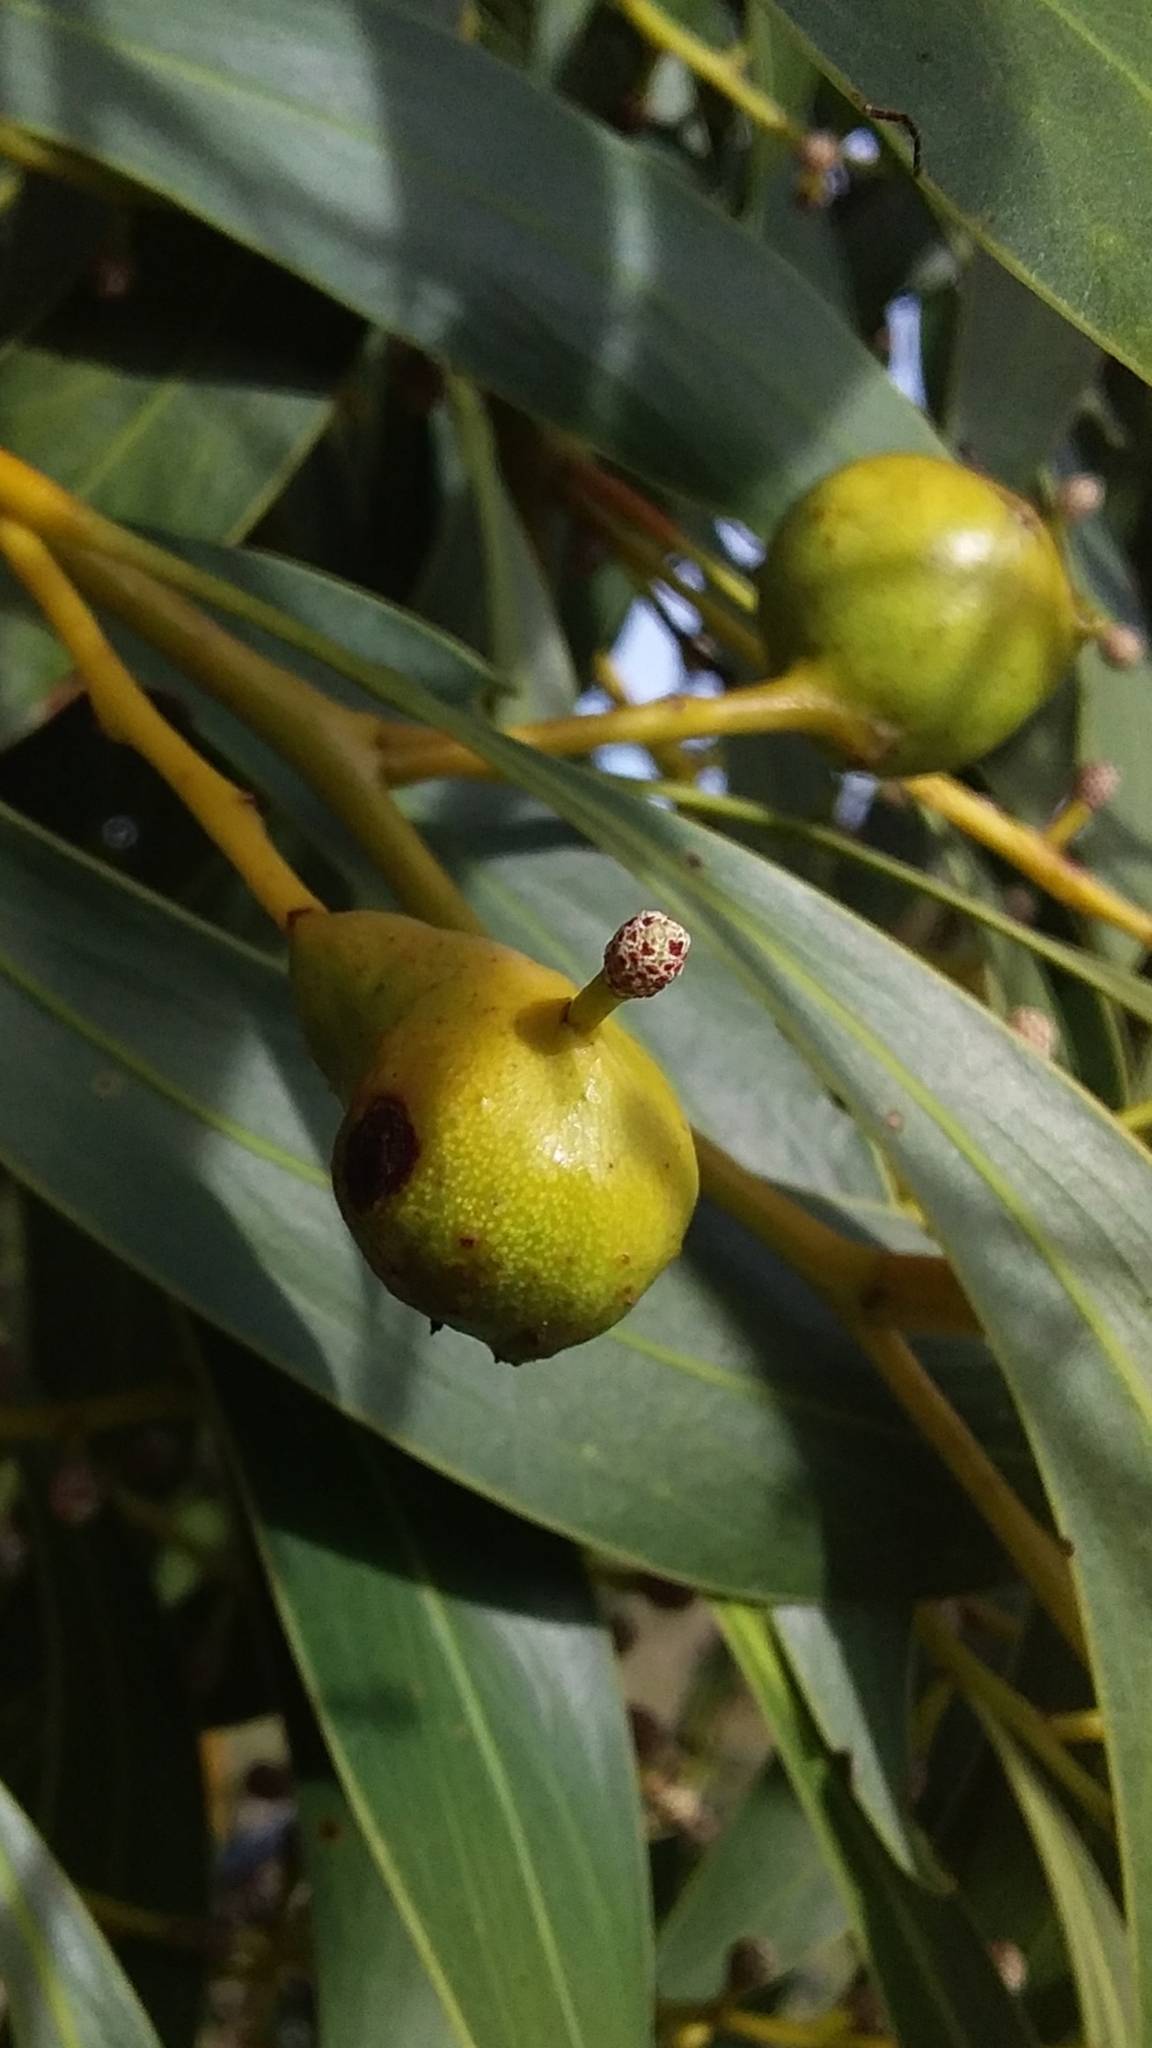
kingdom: Animalia
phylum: Arthropoda
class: Insecta
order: Hymenoptera
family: Pteromalidae
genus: Trichilogaster
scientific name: Trichilogaster signiventris
